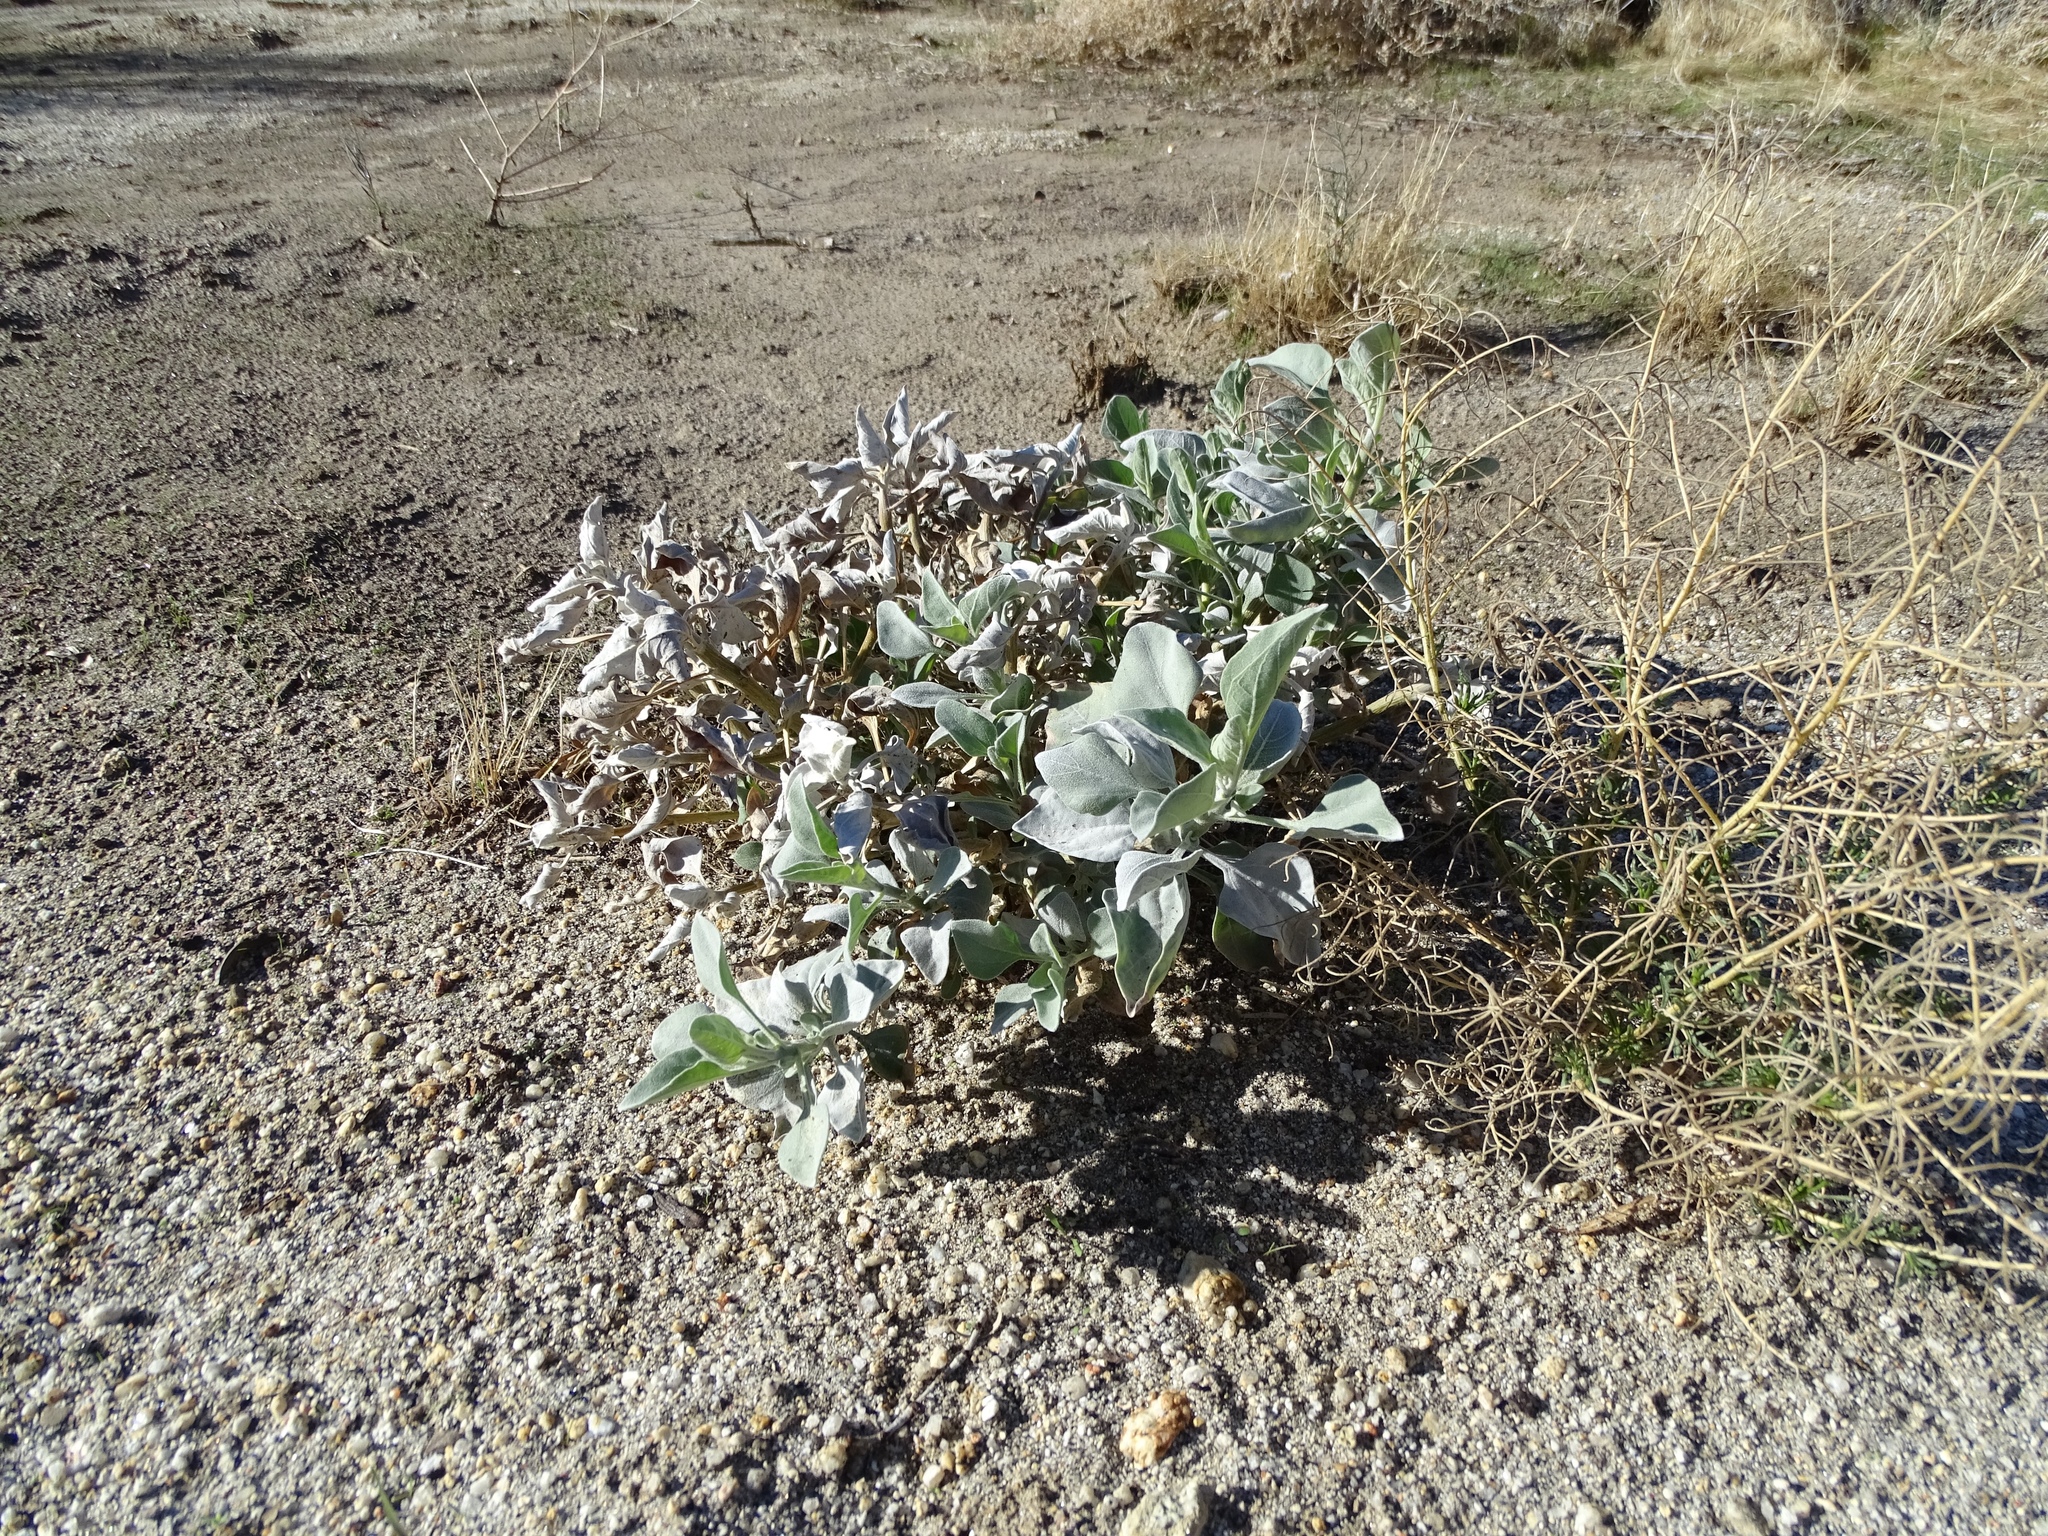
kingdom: Plantae
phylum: Tracheophyta
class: Magnoliopsida
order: Asterales
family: Asteraceae
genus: Encelia
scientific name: Encelia farinosa
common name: Brittlebush
